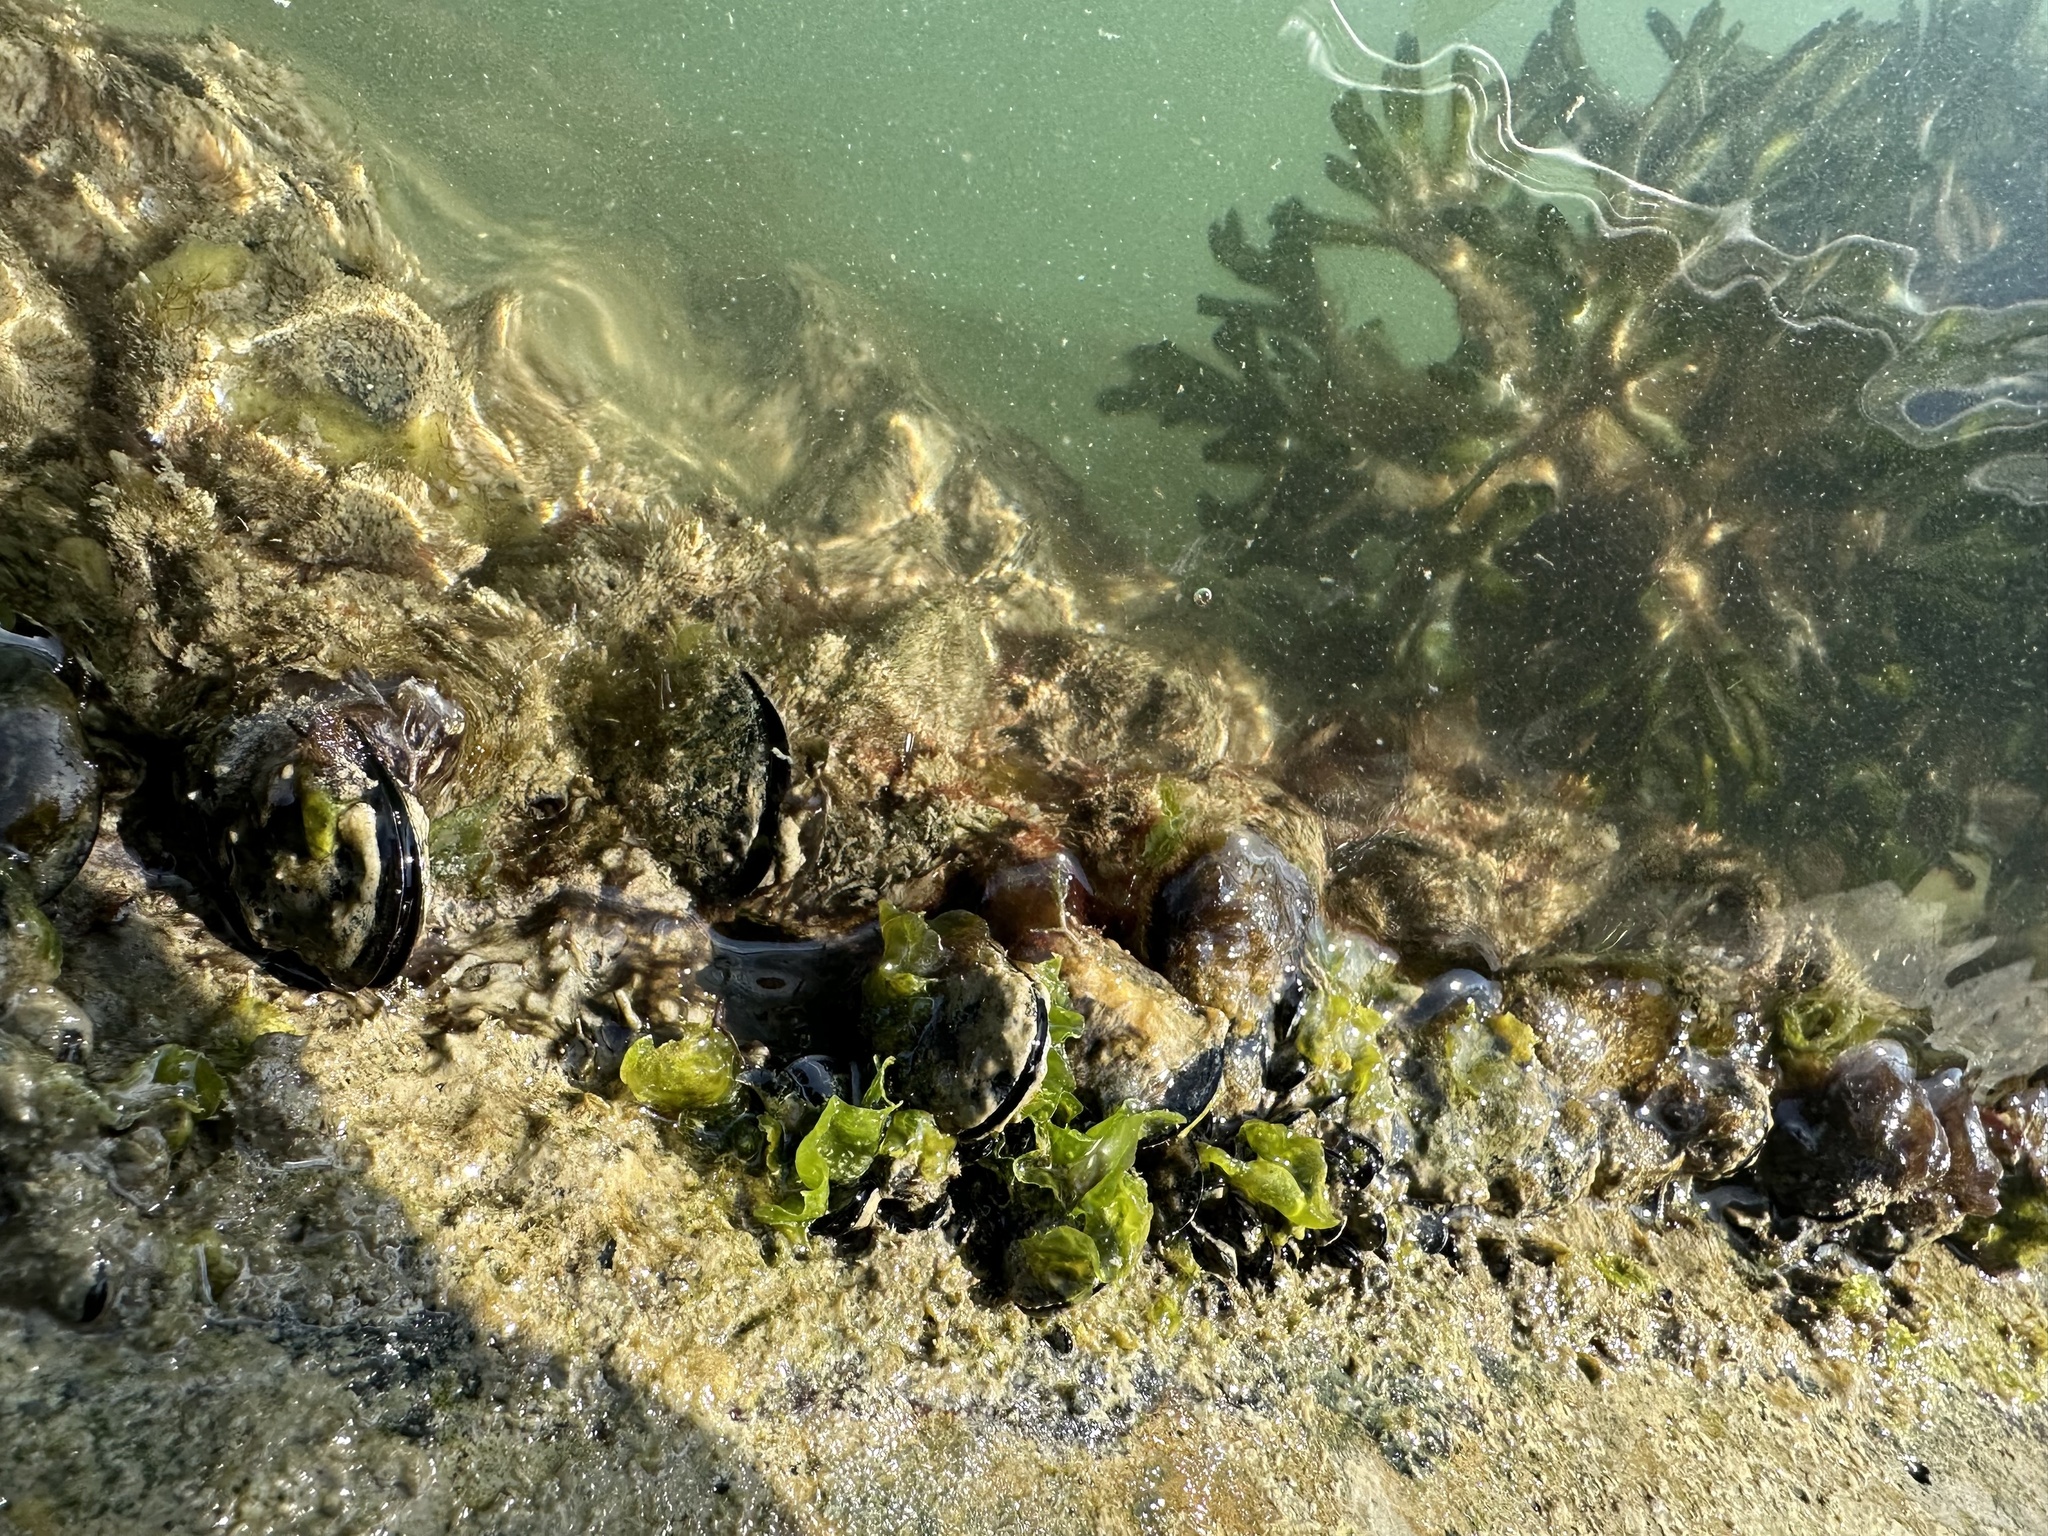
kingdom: Animalia
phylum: Mollusca
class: Bivalvia
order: Mytilida
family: Mytilidae
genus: Mytilus
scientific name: Mytilus planulatus
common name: Australian mussel
